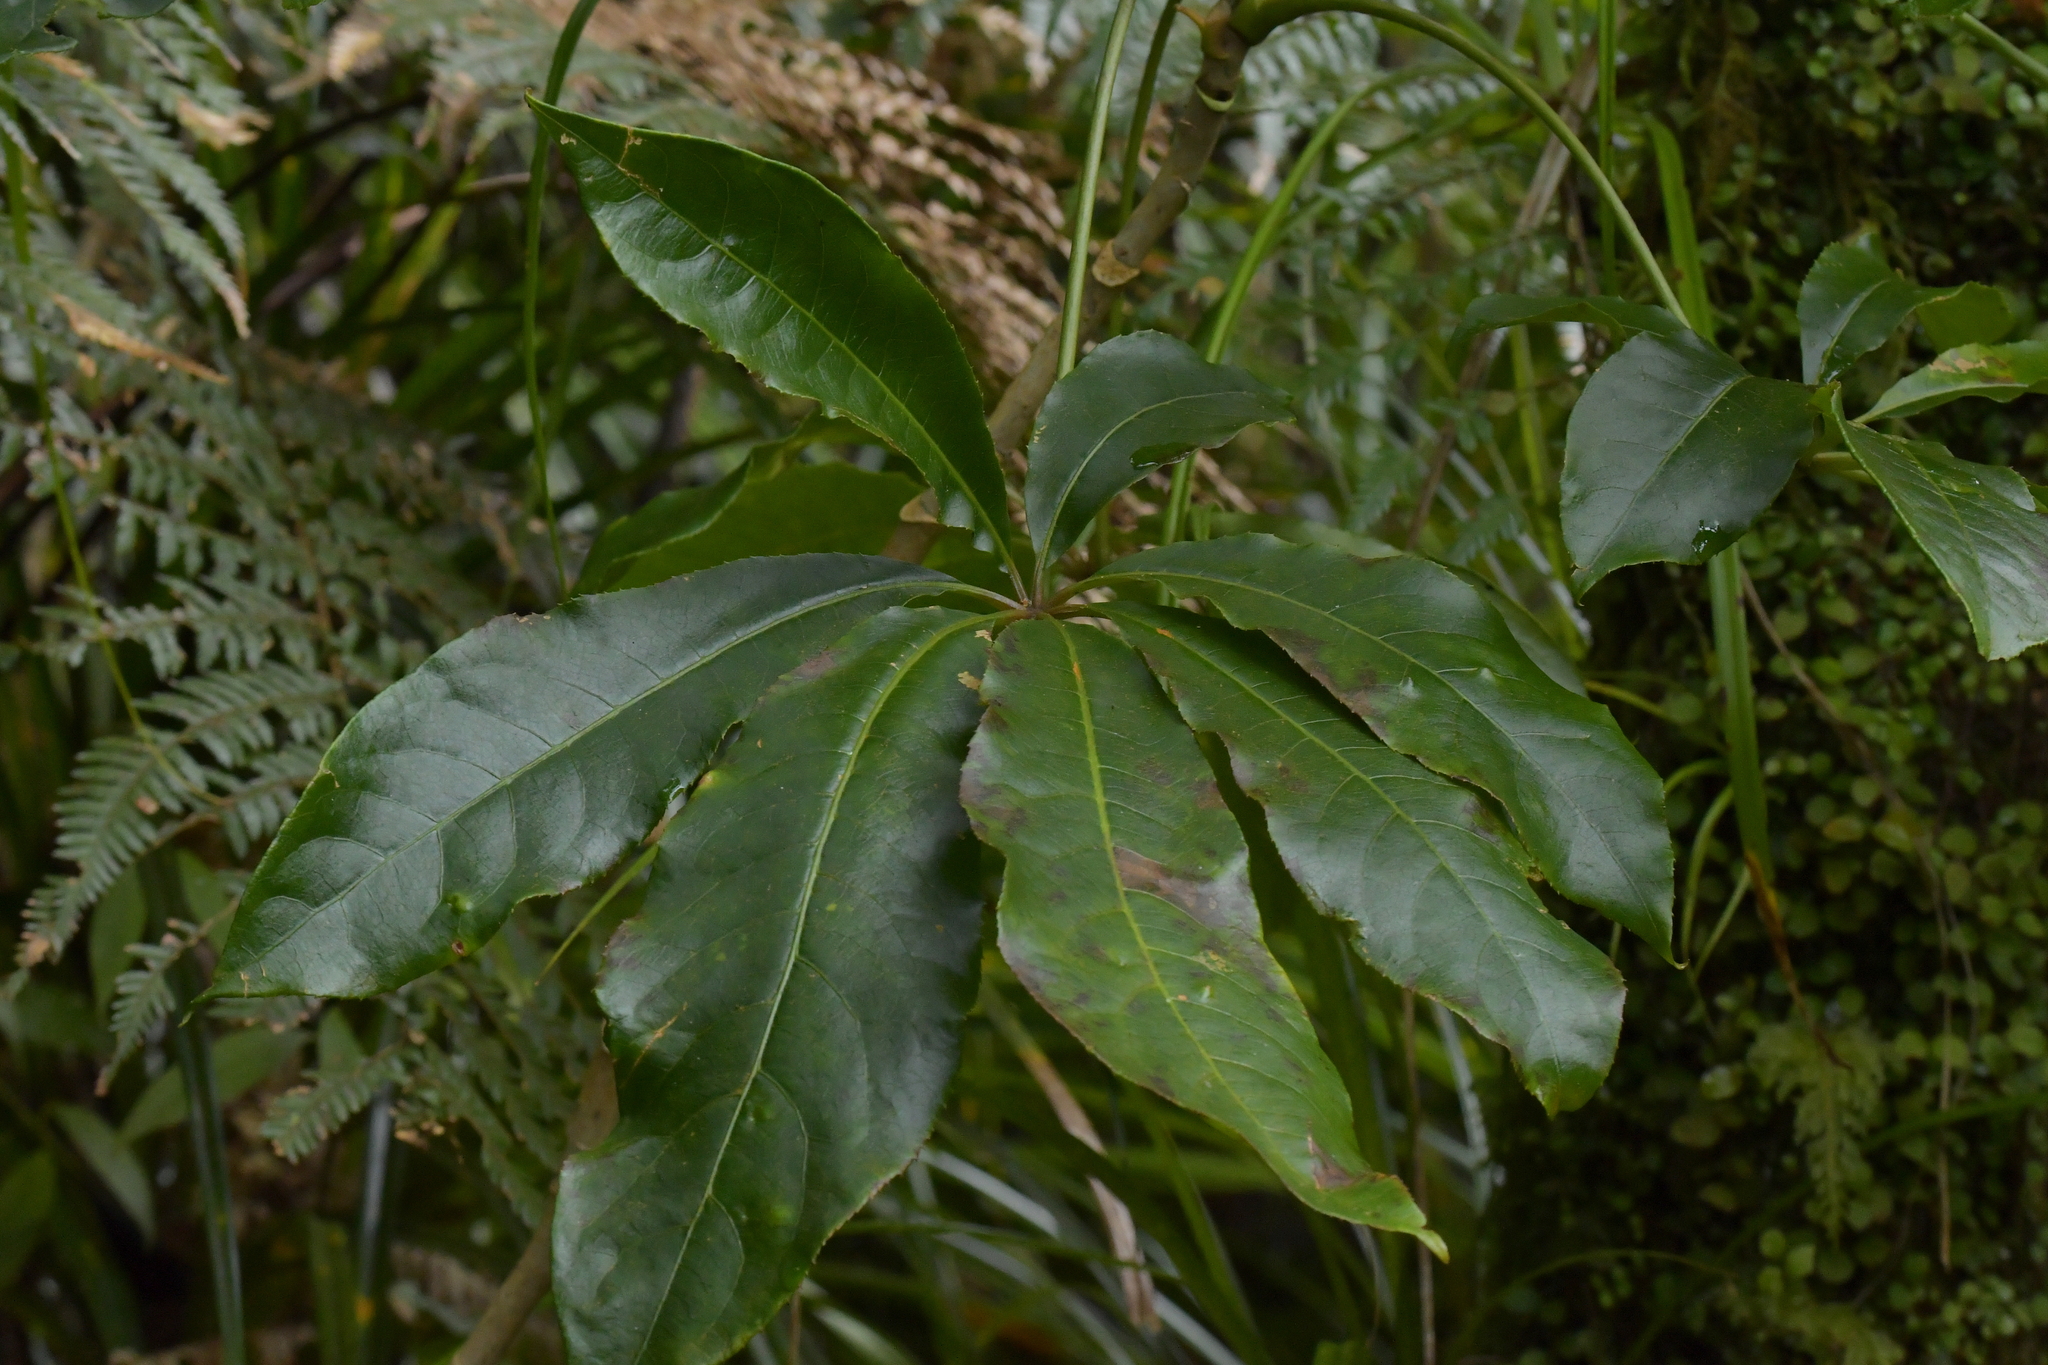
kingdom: Plantae
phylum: Tracheophyta
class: Magnoliopsida
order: Apiales
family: Araliaceae
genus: Schefflera
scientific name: Schefflera digitata
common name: Pate
